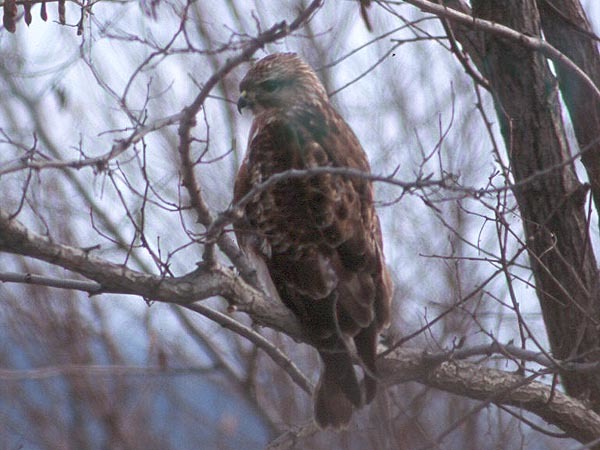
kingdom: Animalia
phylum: Chordata
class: Aves
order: Accipitriformes
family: Accipitridae
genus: Buteo
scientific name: Buteo japonicus
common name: Eastern buzzard
